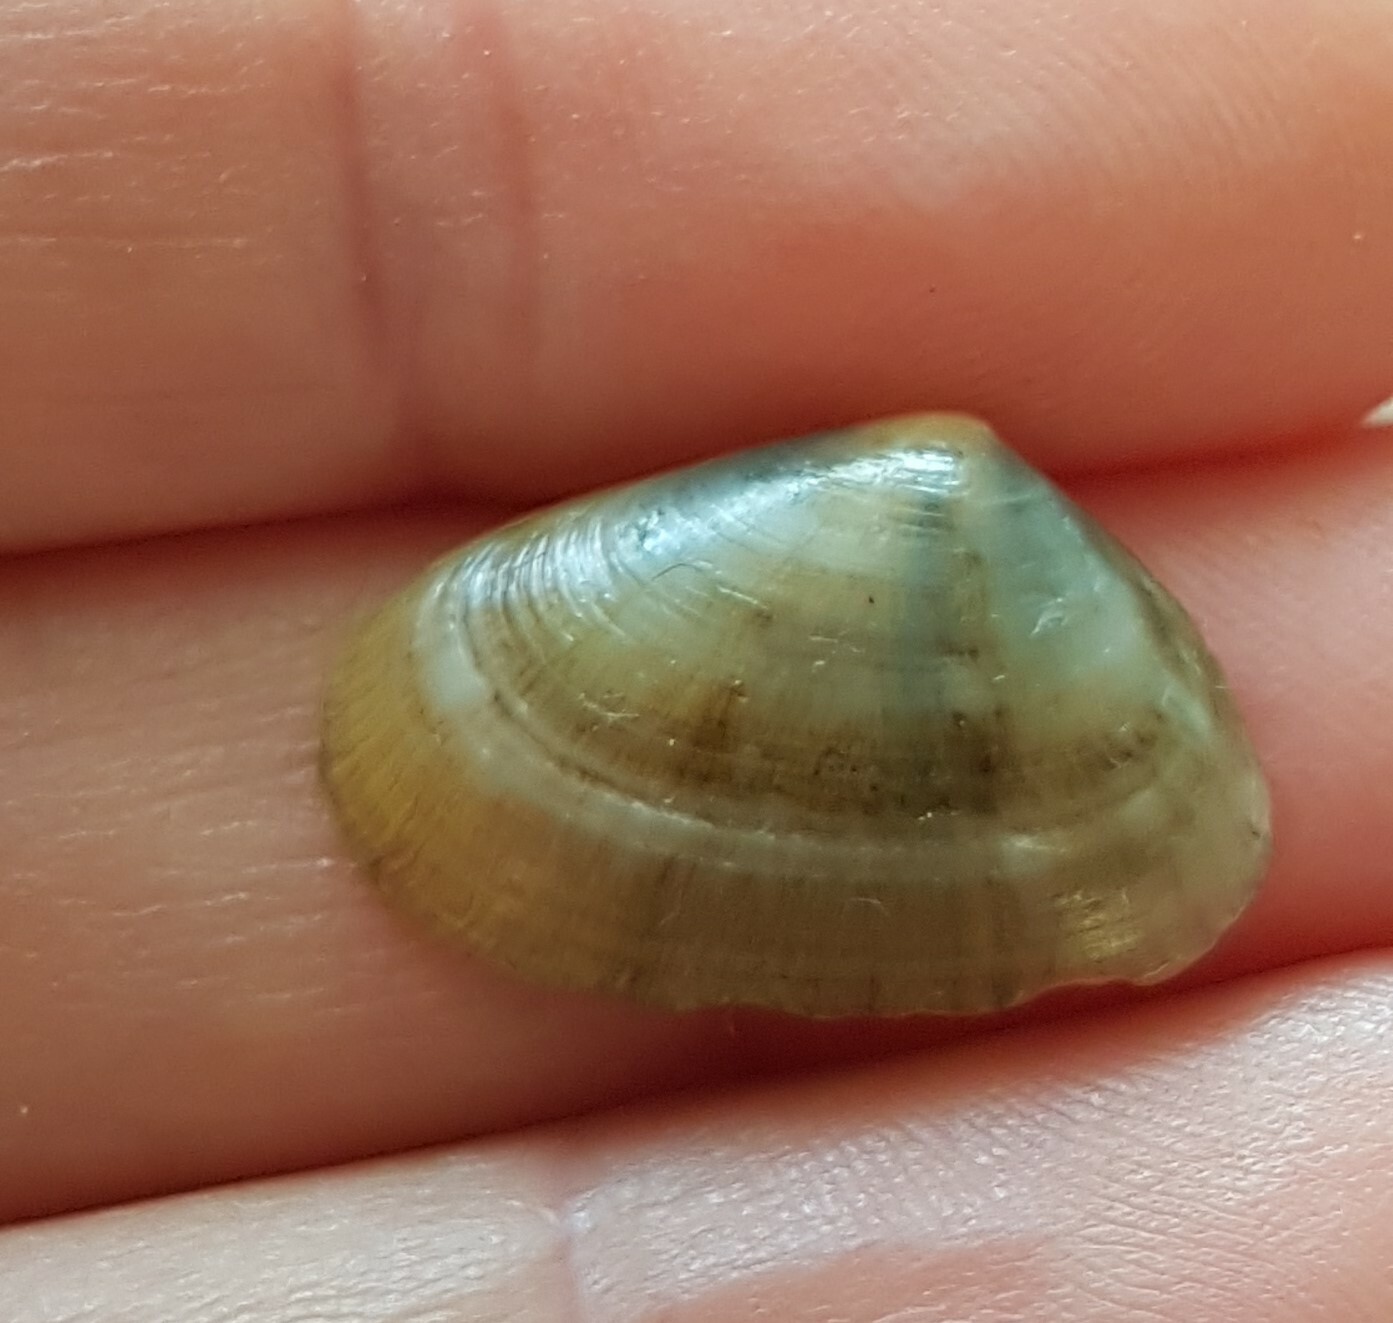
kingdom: Animalia
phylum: Mollusca
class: Bivalvia
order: Venerida
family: Mesodesmatidae
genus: Donacilla
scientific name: Donacilla cornea
